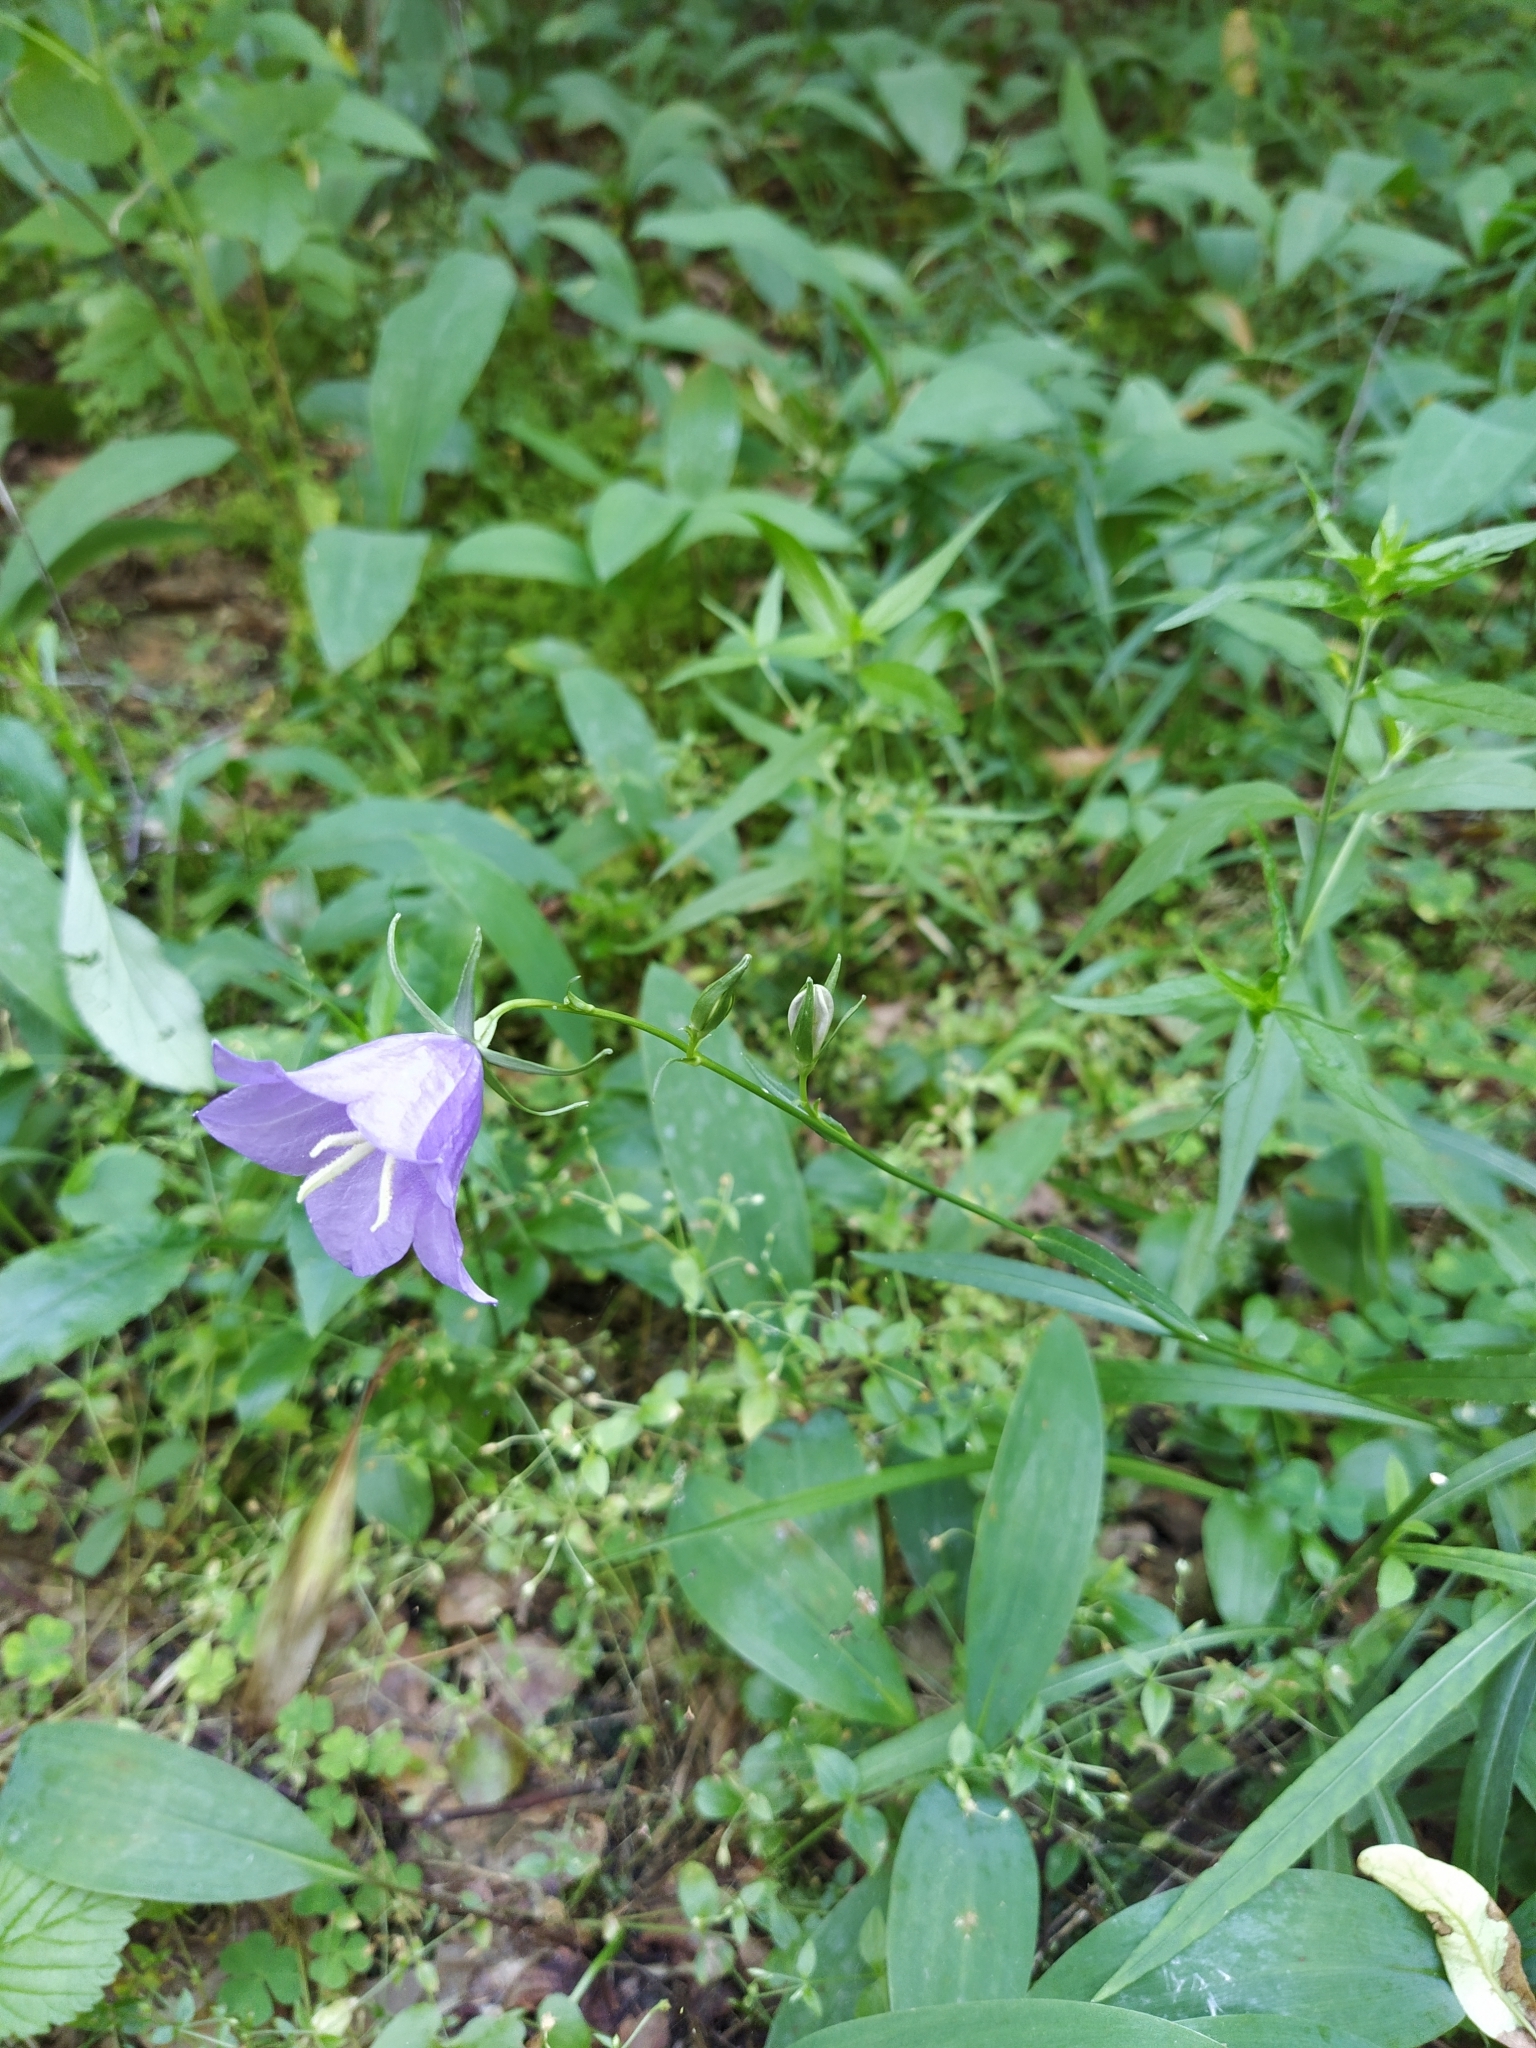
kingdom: Plantae
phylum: Tracheophyta
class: Magnoliopsida
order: Asterales
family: Campanulaceae
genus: Campanula
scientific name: Campanula persicifolia
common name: Peach-leaved bellflower
